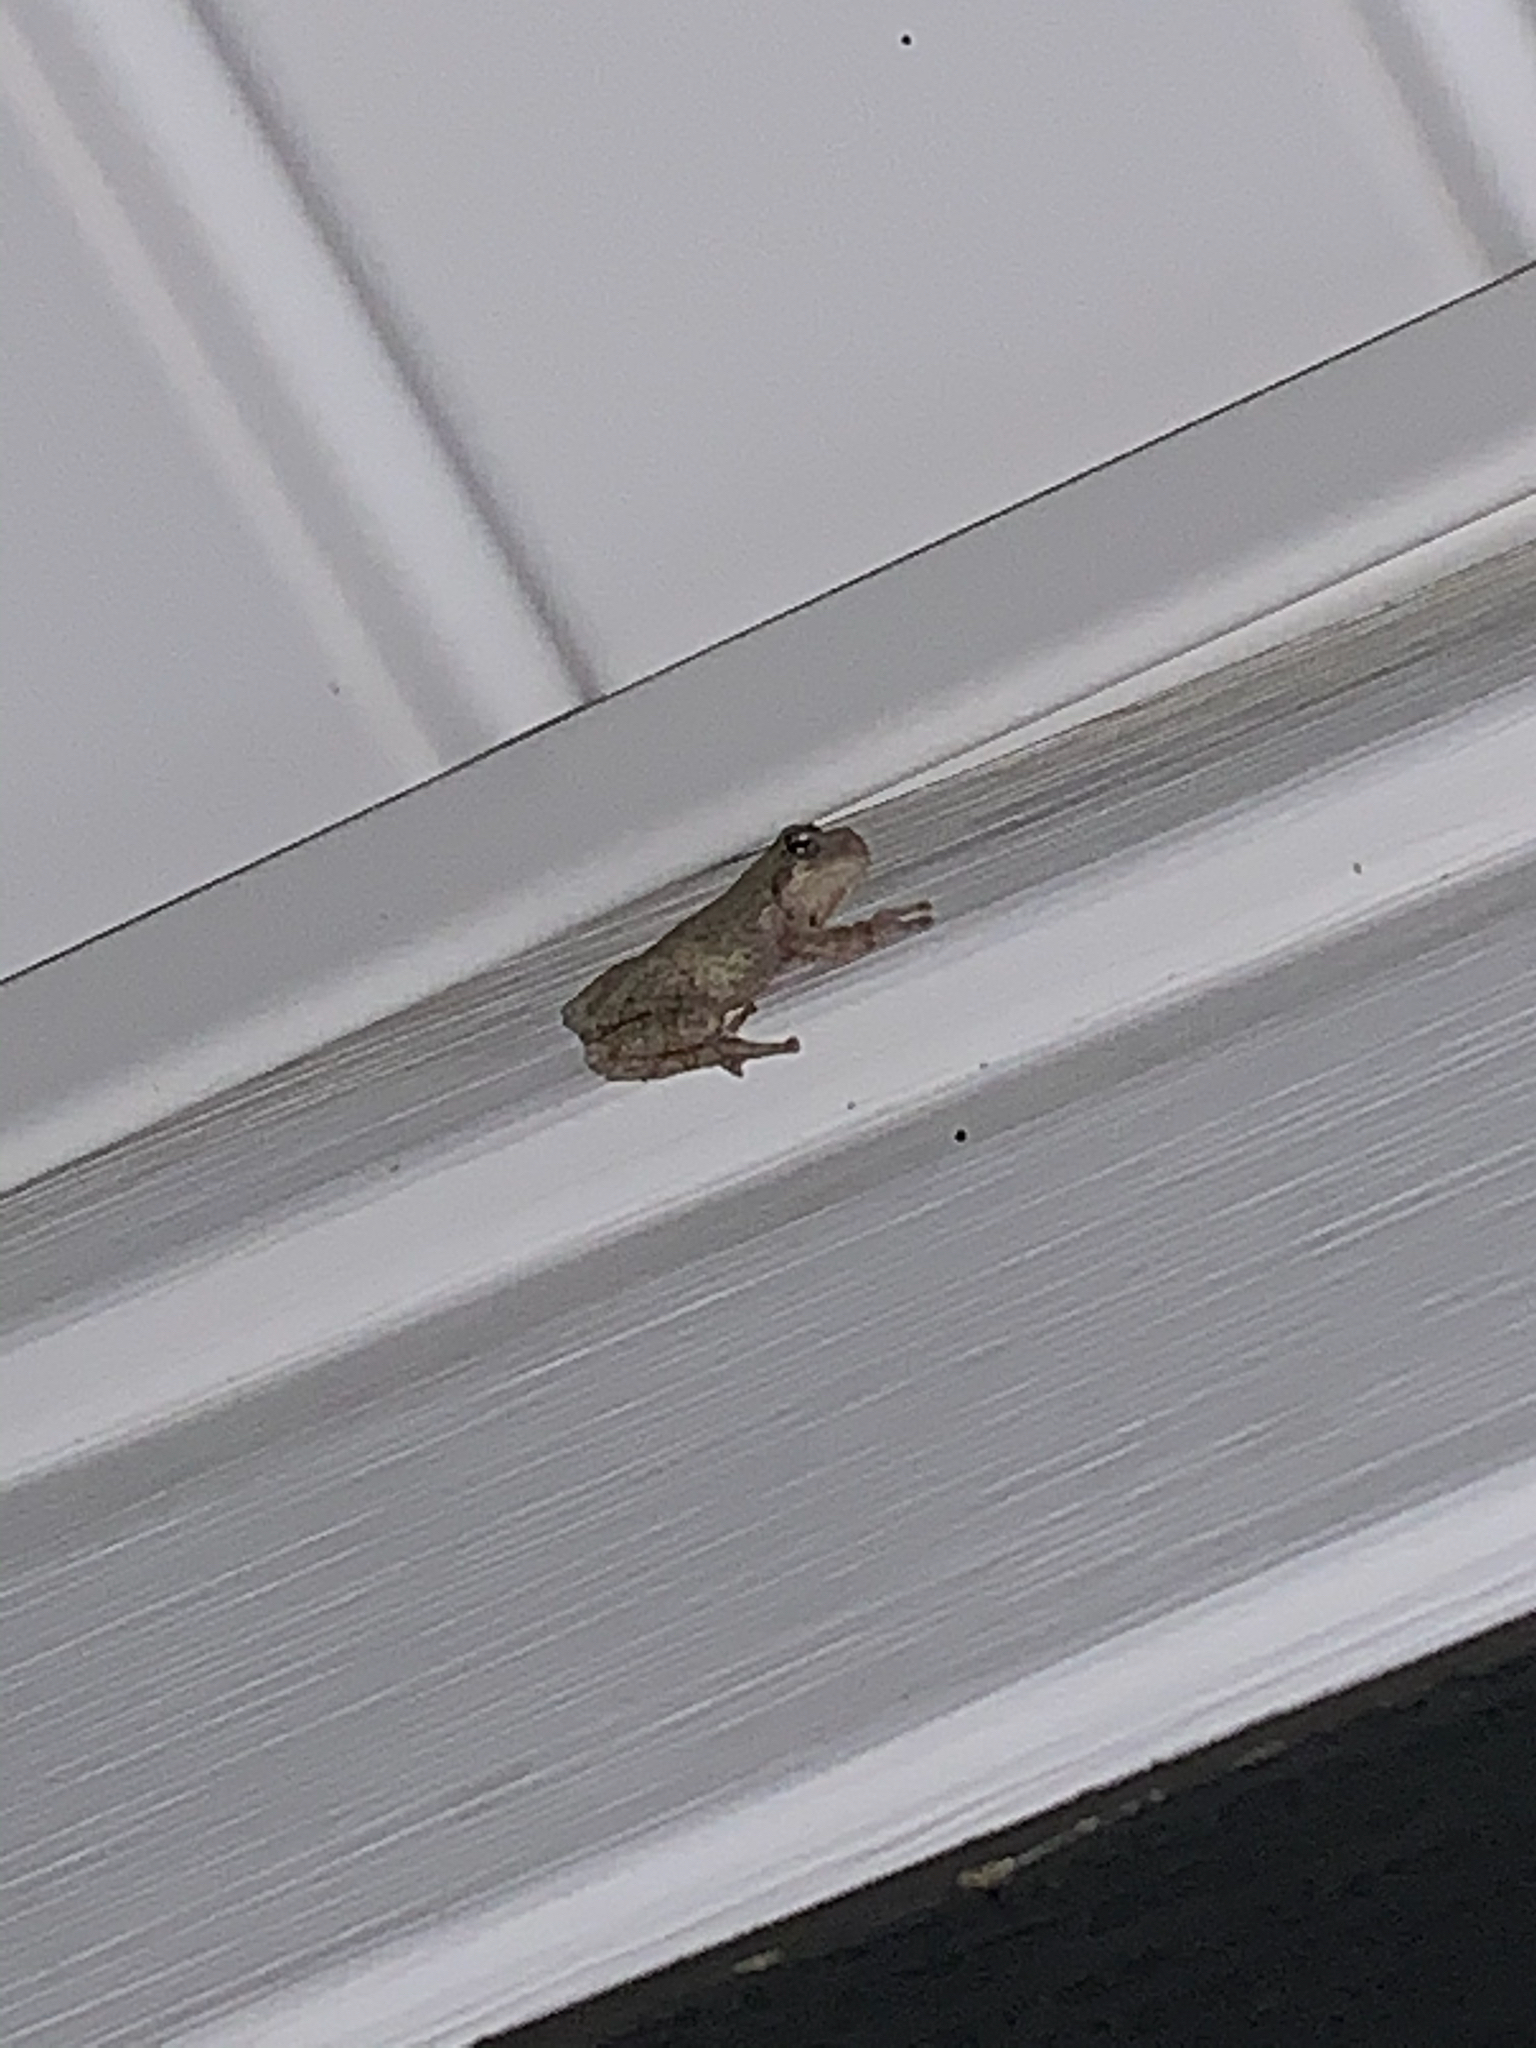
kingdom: Animalia
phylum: Chordata
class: Amphibia
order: Anura
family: Hylidae
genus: Hyla
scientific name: Hyla
